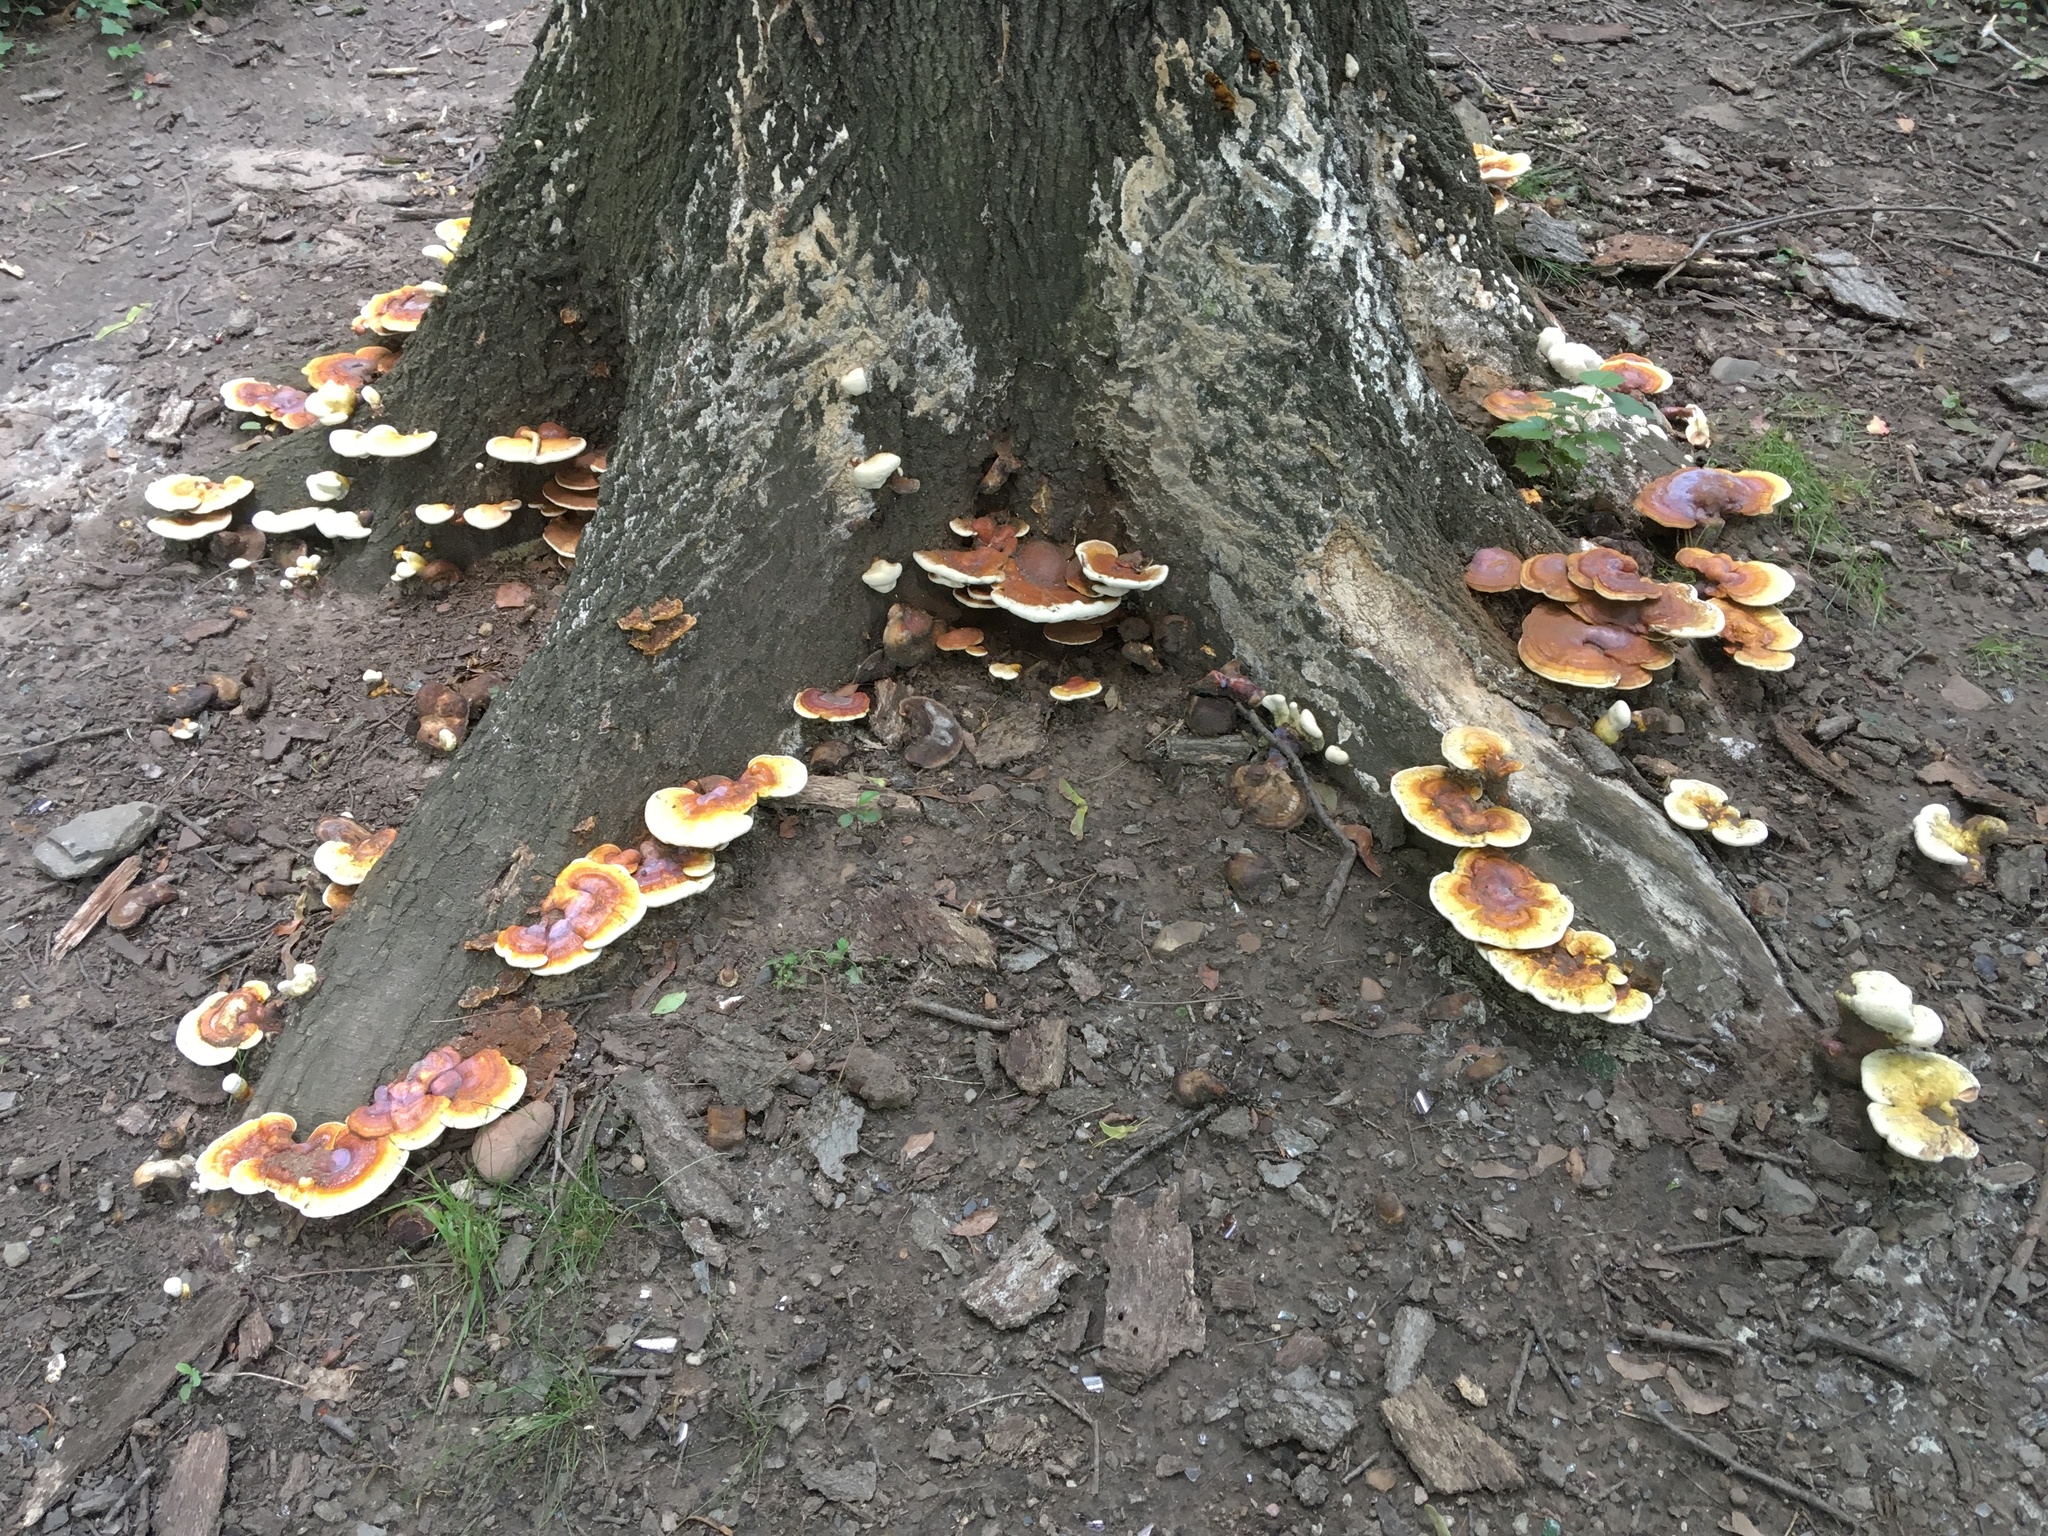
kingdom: Fungi
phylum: Basidiomycota
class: Agaricomycetes
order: Polyporales
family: Polyporaceae
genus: Ganoderma
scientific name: Ganoderma curtisii
